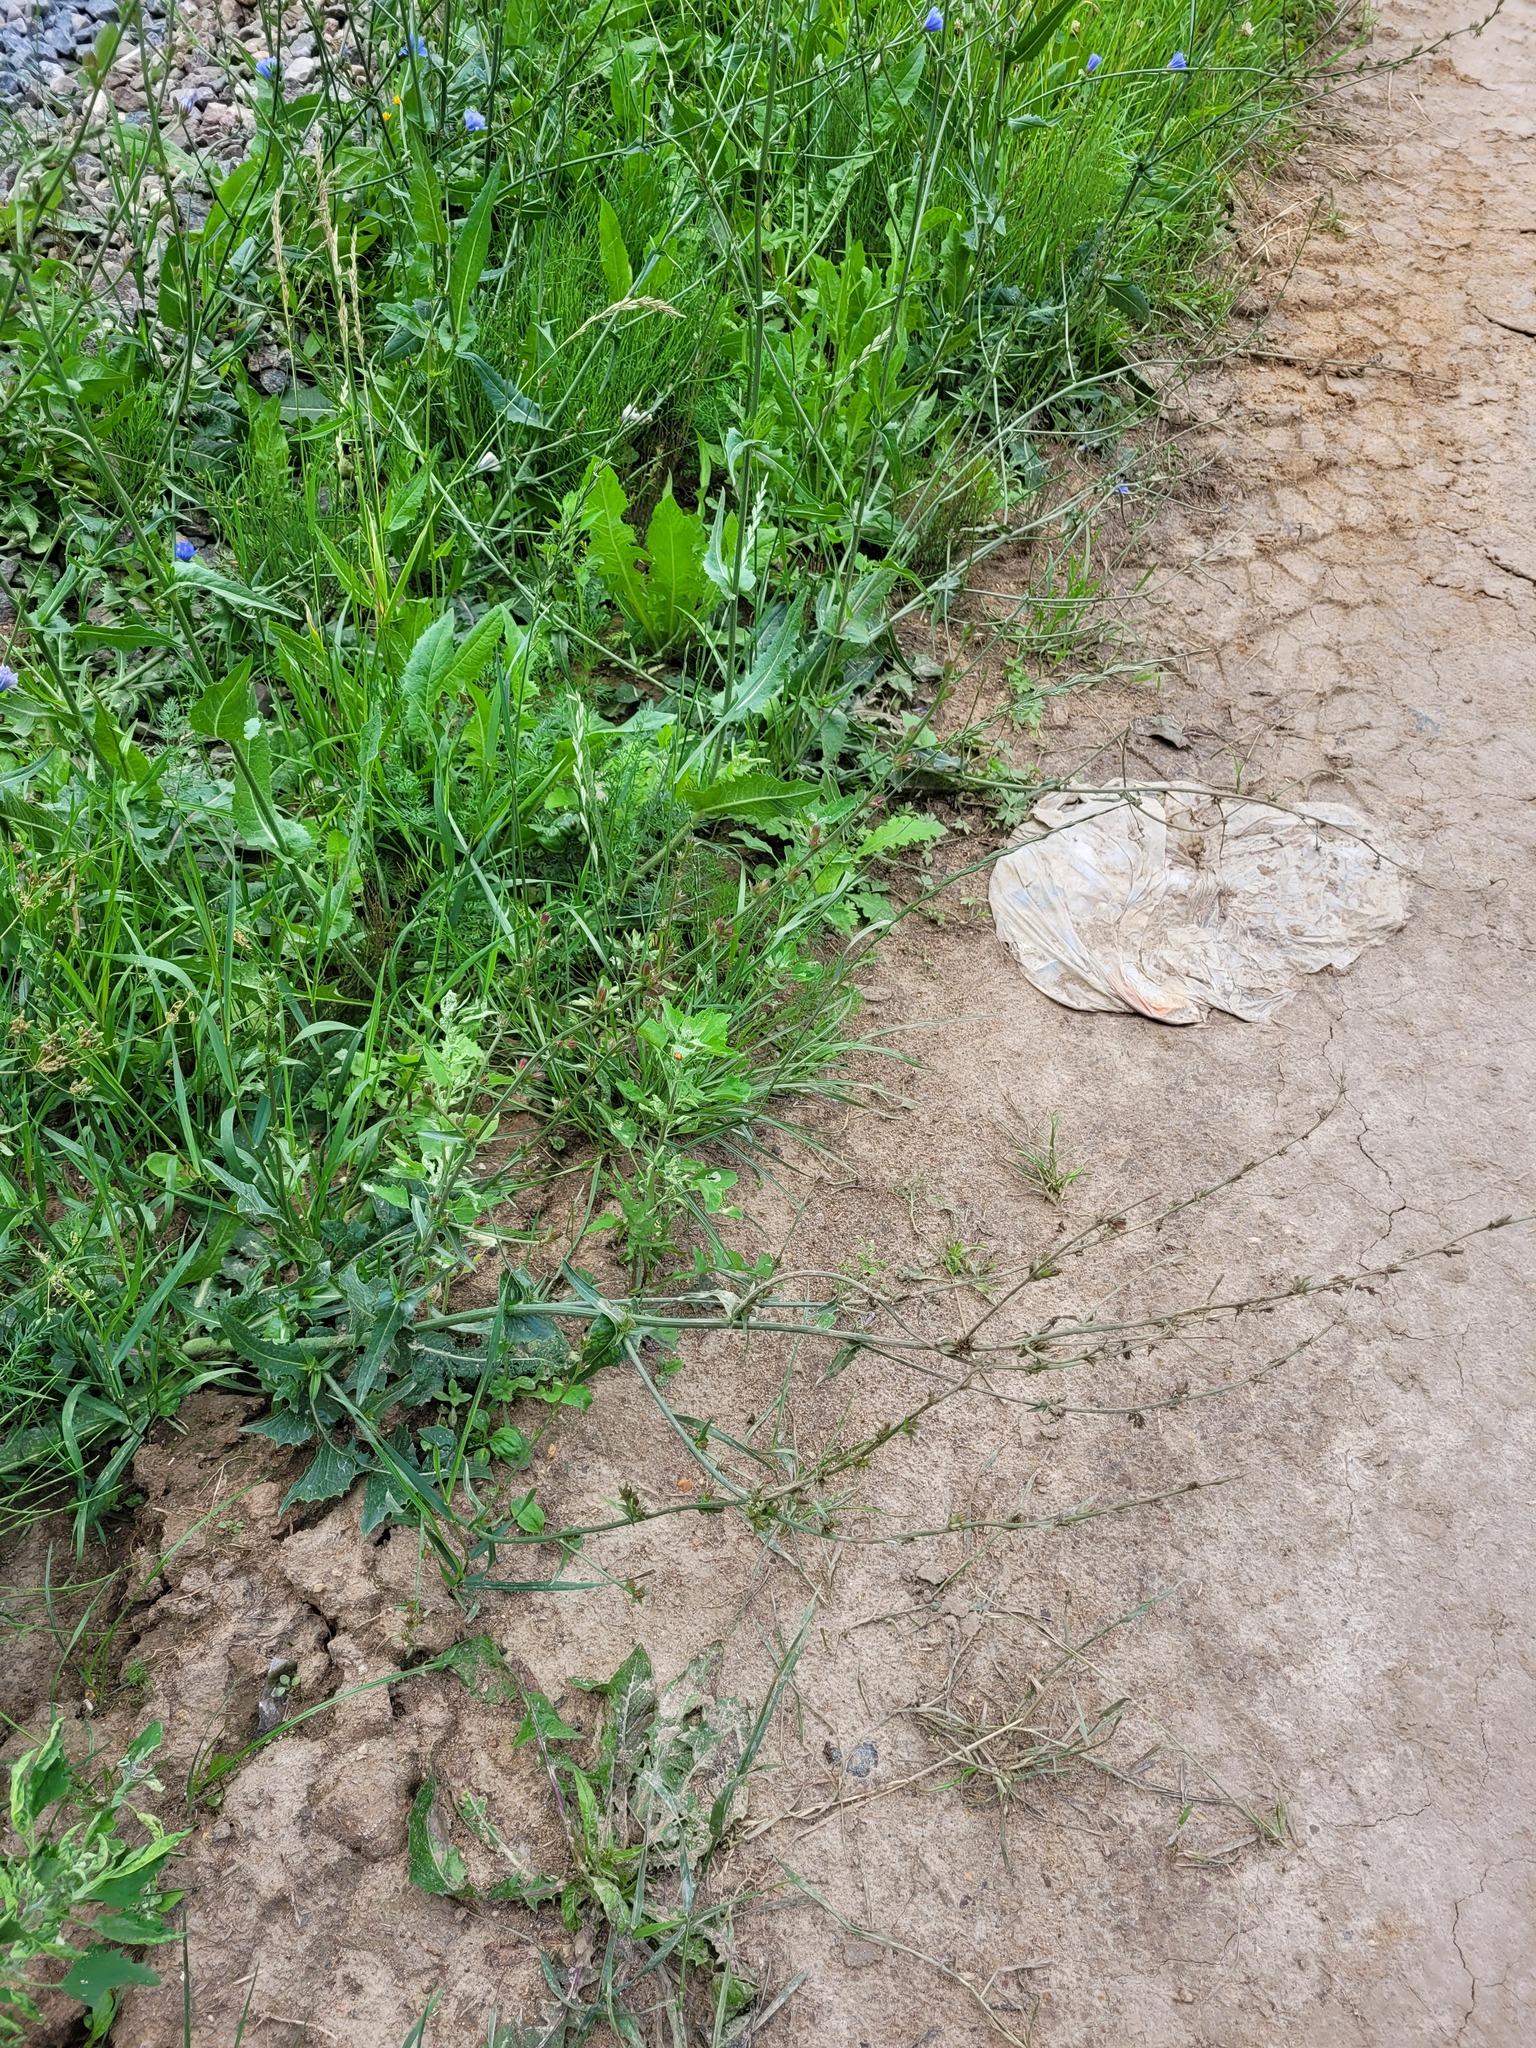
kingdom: Plantae
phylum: Tracheophyta
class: Magnoliopsida
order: Asterales
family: Asteraceae
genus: Cichorium
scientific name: Cichorium intybus
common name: Chicory
